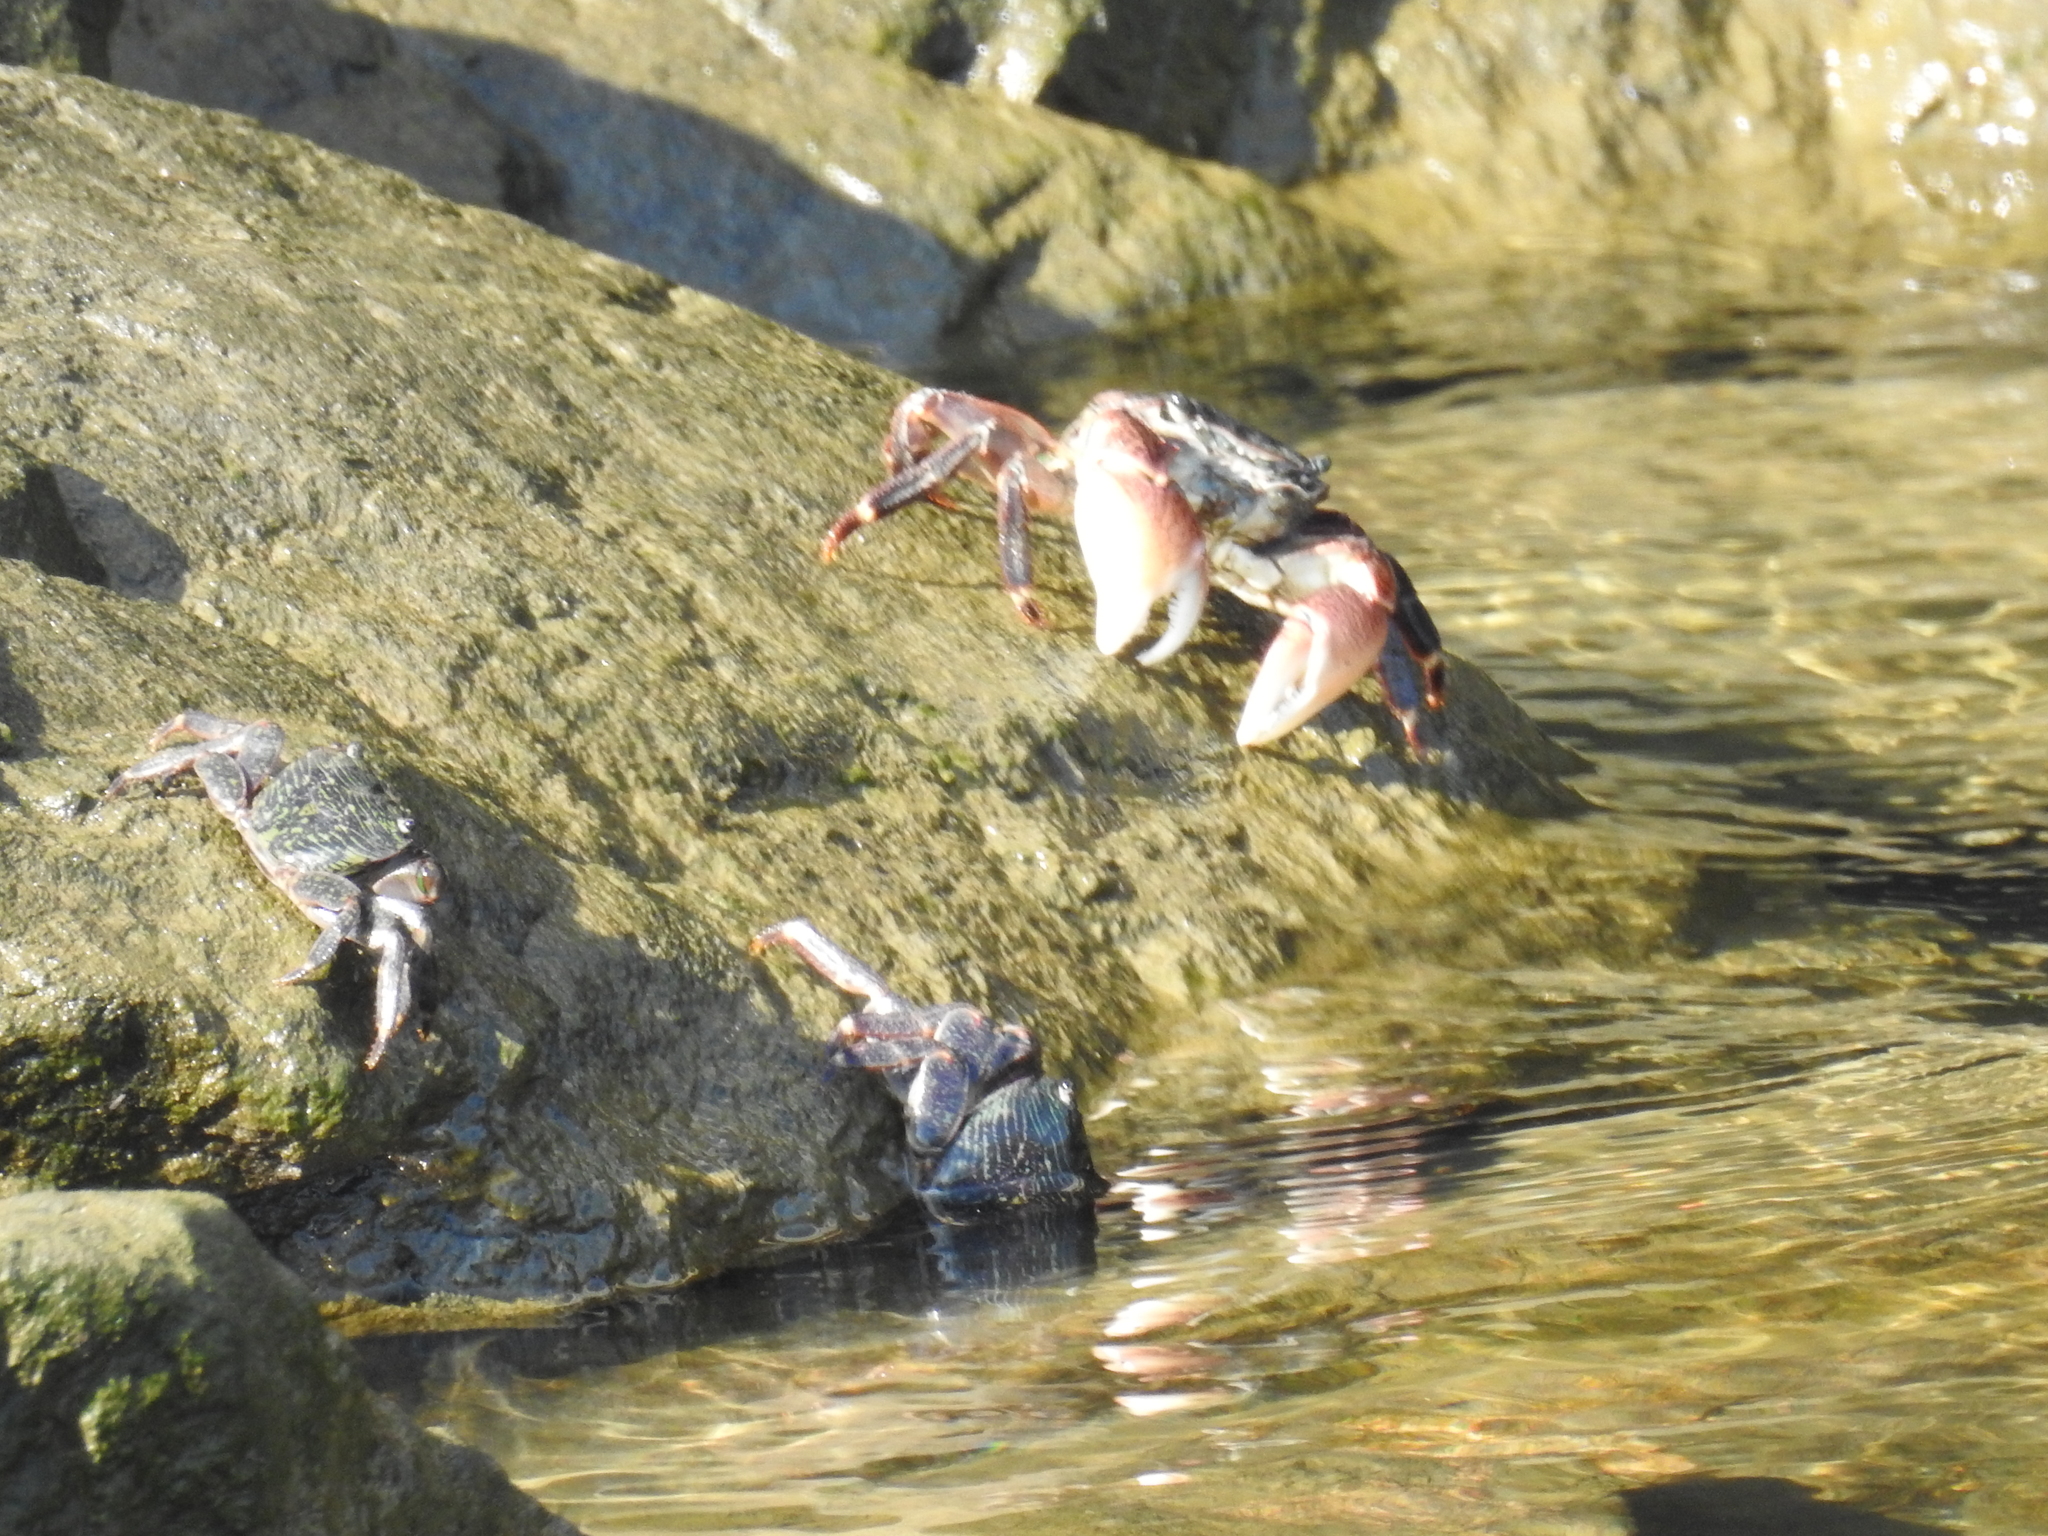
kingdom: Animalia
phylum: Arthropoda
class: Malacostraca
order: Decapoda
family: Grapsidae
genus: Pachygrapsus
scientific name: Pachygrapsus crassipes
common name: Striped shore crab
